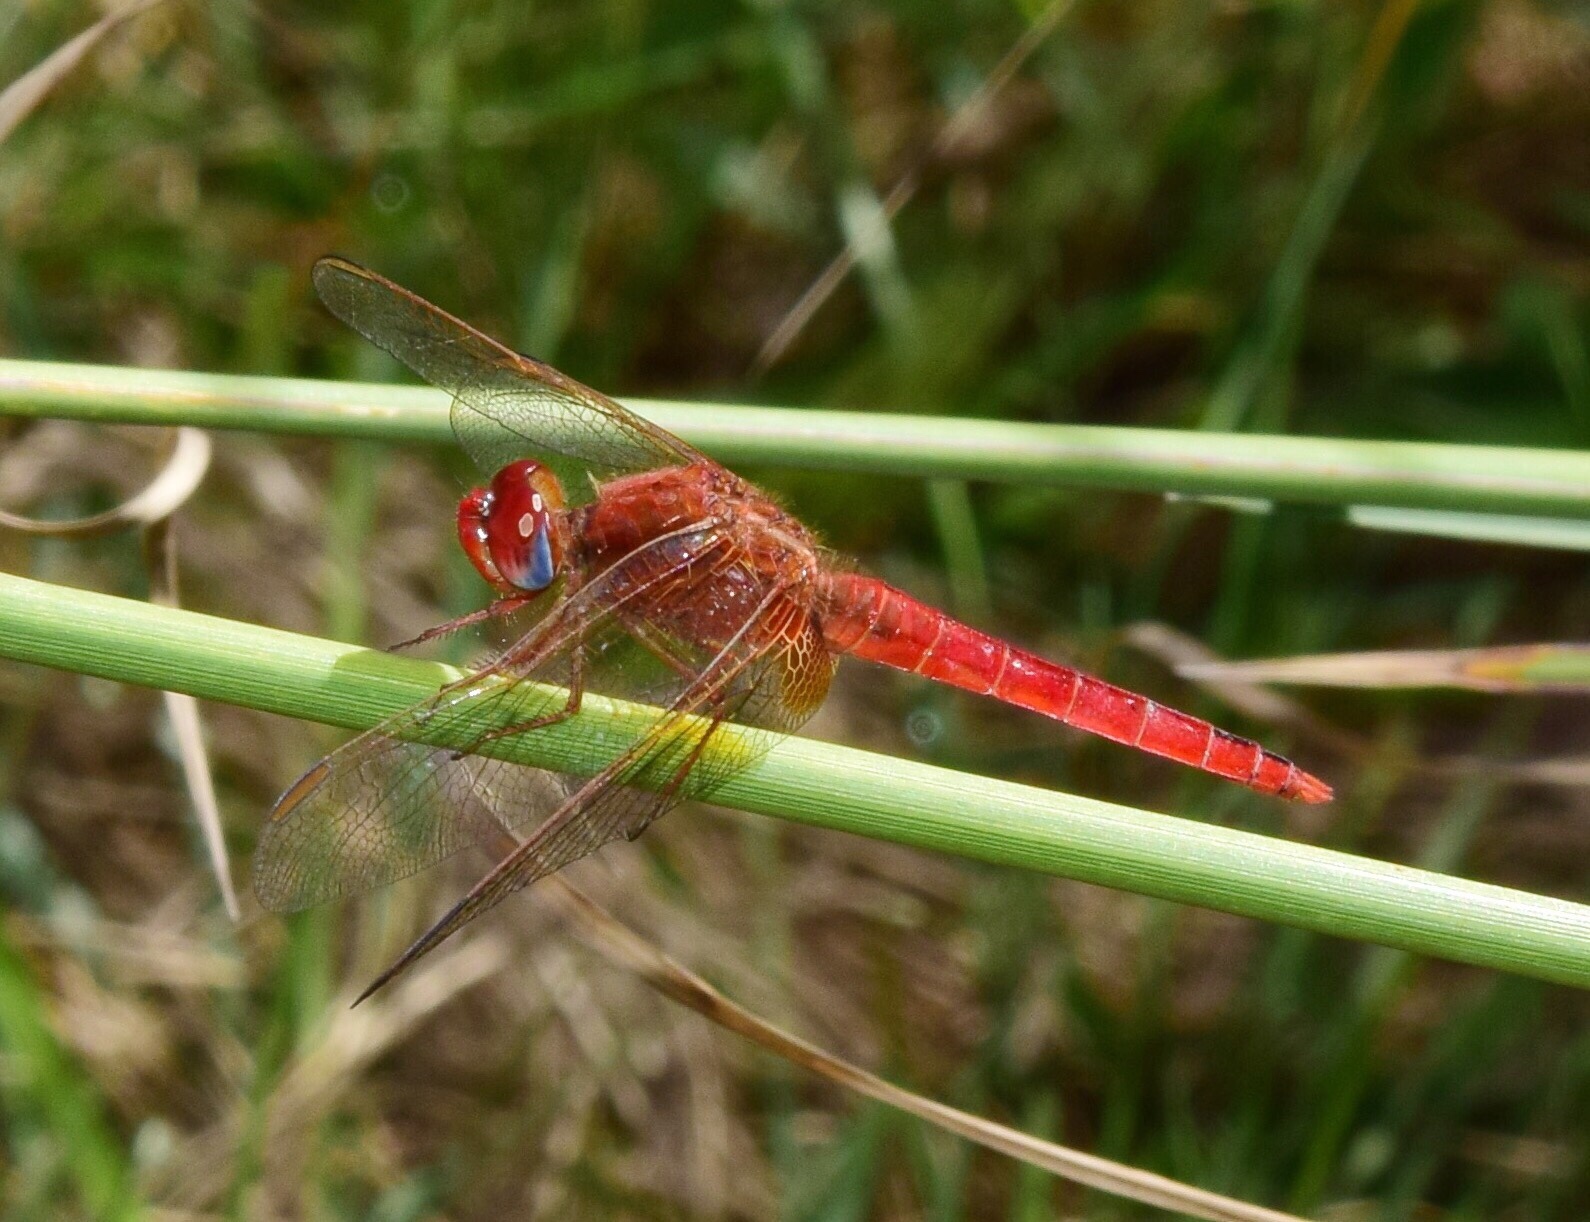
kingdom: Animalia
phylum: Arthropoda
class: Insecta
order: Odonata
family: Libellulidae
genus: Crocothemis
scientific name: Crocothemis erythraea
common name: Scarlet dragonfly
